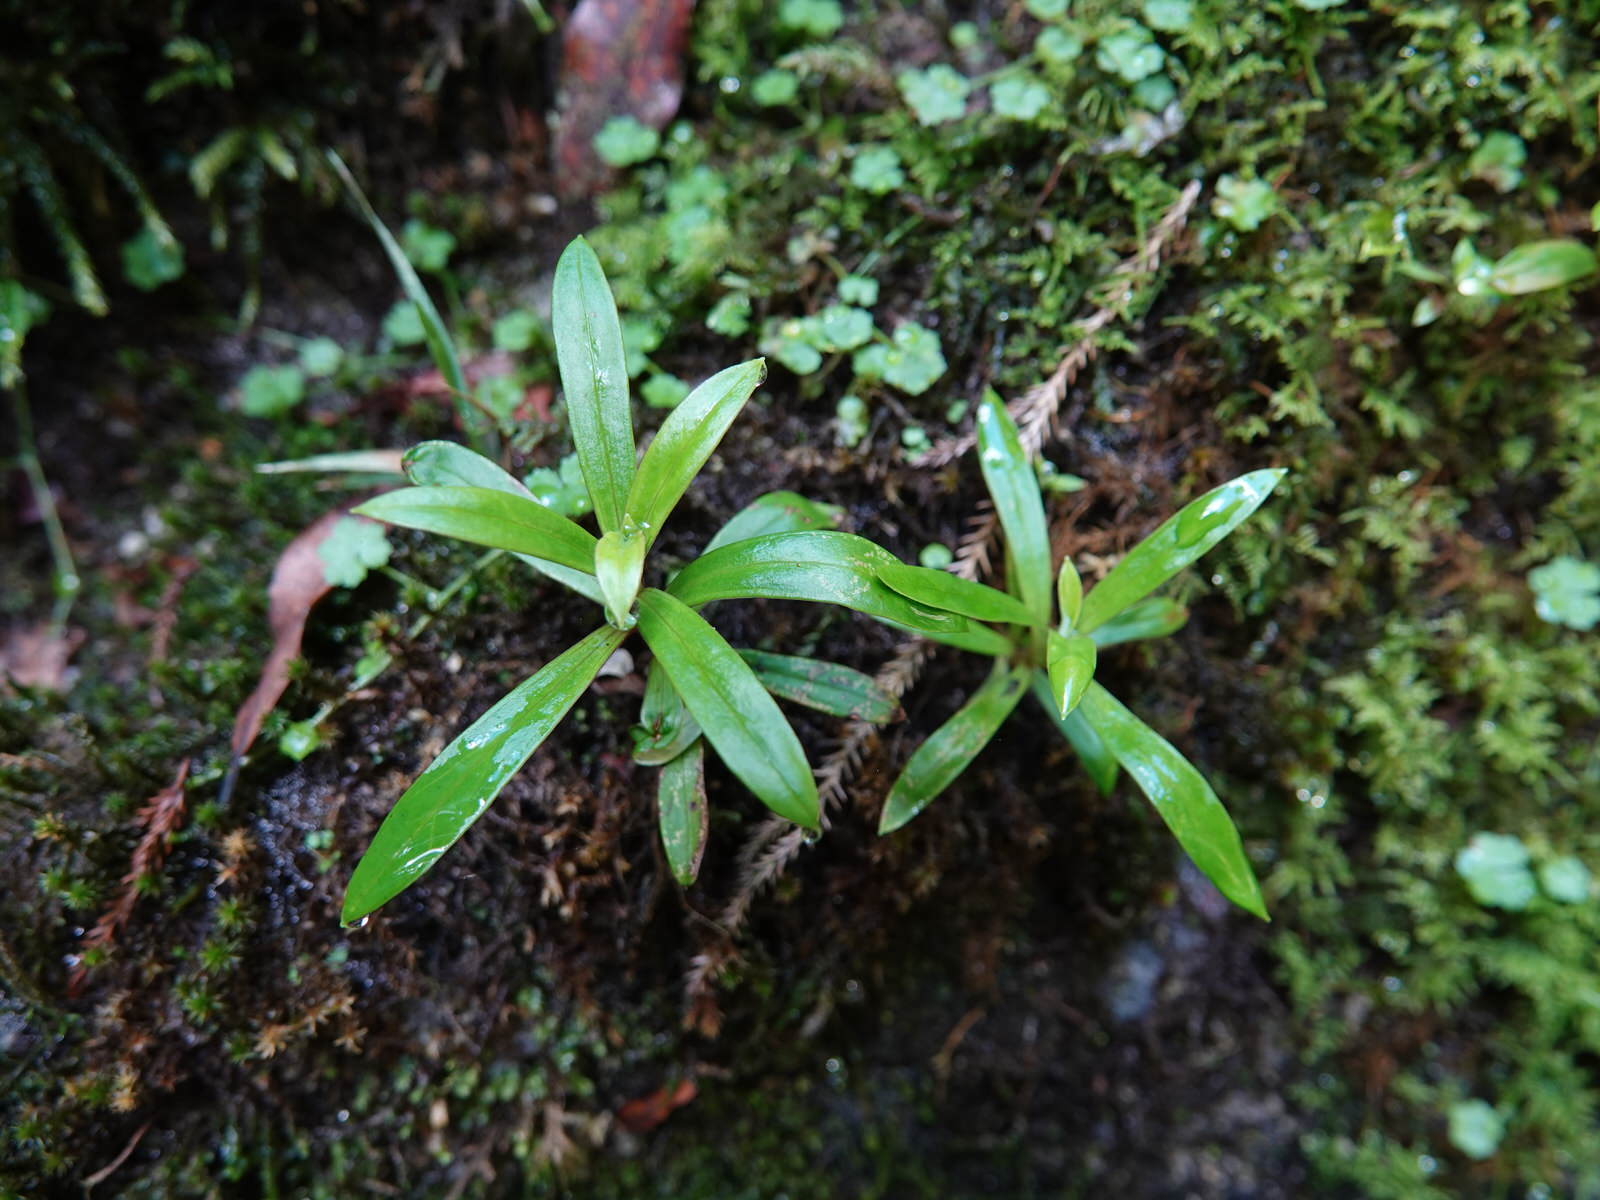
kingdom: Plantae
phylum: Tracheophyta
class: Magnoliopsida
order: Asterales
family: Asteraceae
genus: Anaphalioides
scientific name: Anaphalioides trinervis
